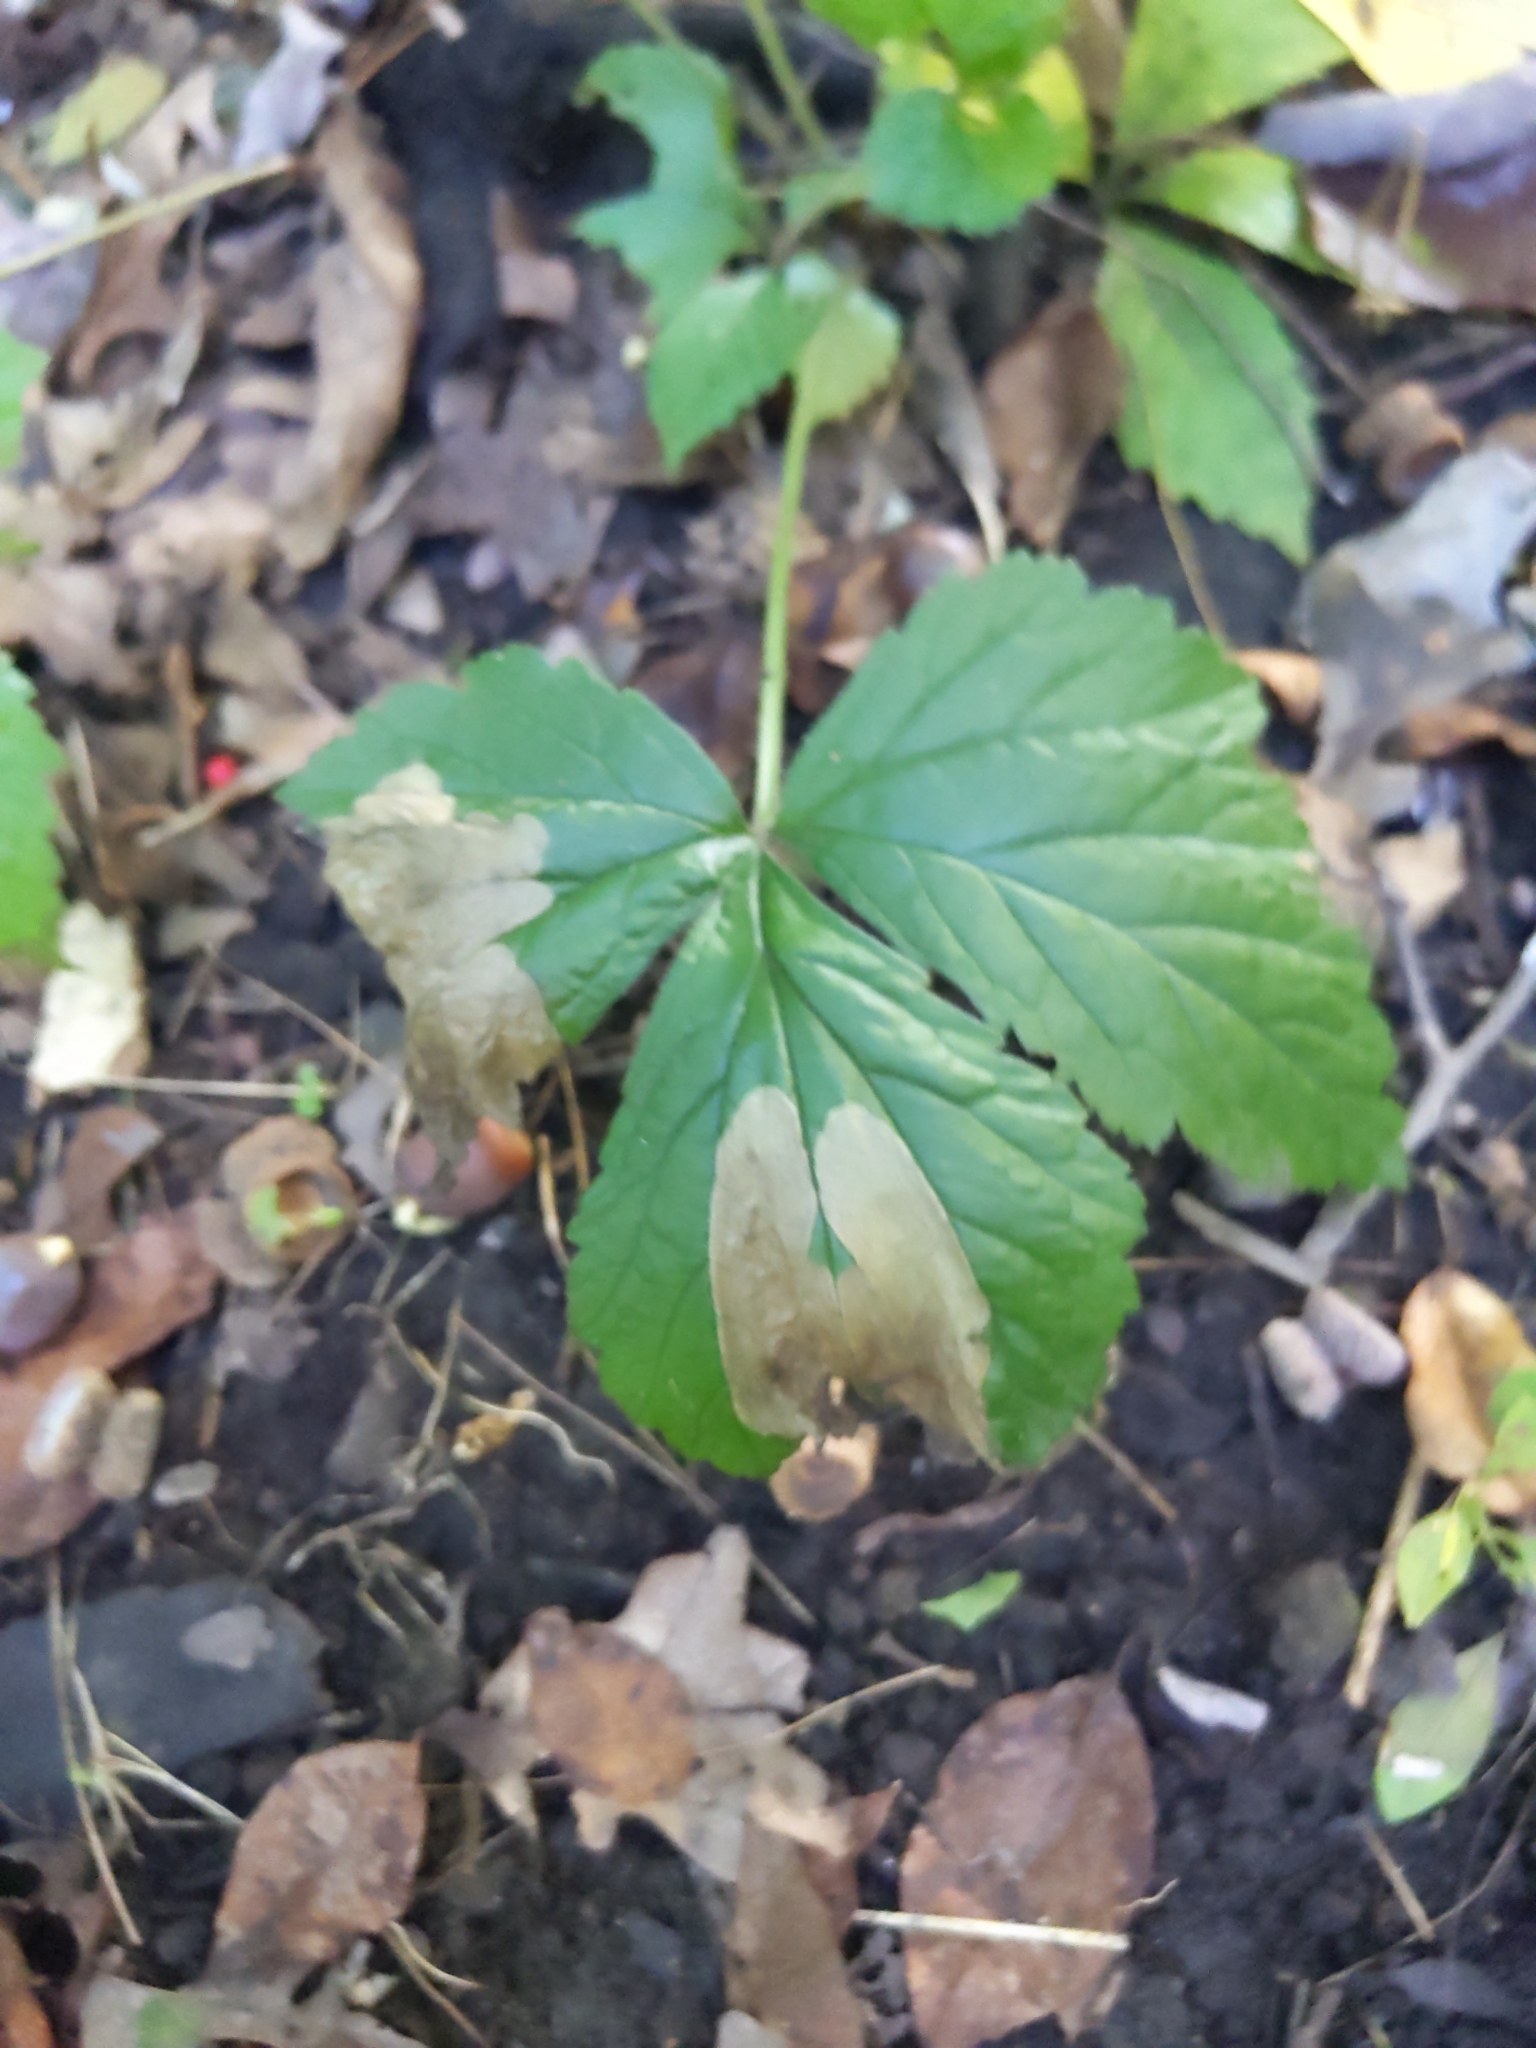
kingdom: Animalia
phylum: Arthropoda
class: Insecta
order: Hymenoptera
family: Tenthredinidae
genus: Metallus
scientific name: Metallus lanceolatus
